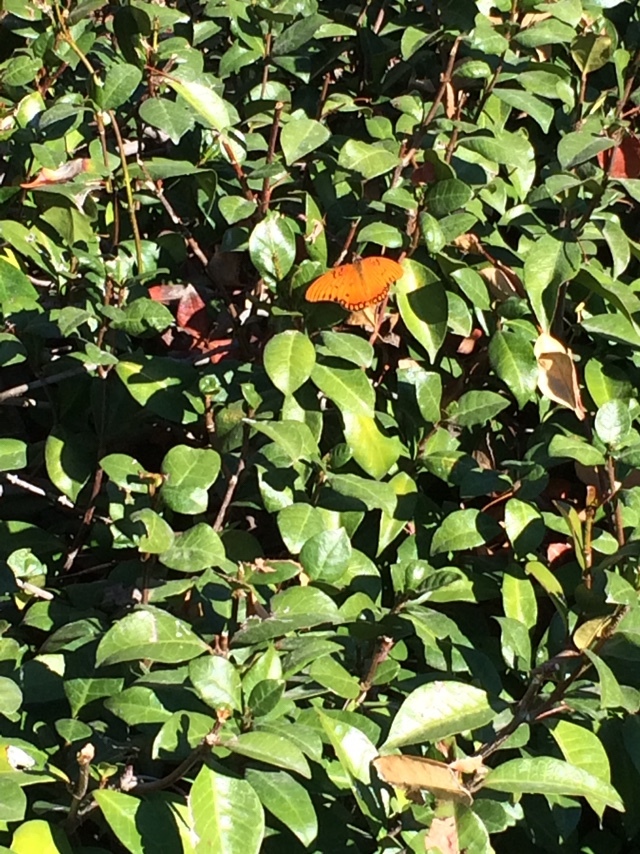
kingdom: Animalia
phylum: Arthropoda
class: Insecta
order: Lepidoptera
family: Nymphalidae
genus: Dione
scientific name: Dione vanillae
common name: Gulf fritillary
